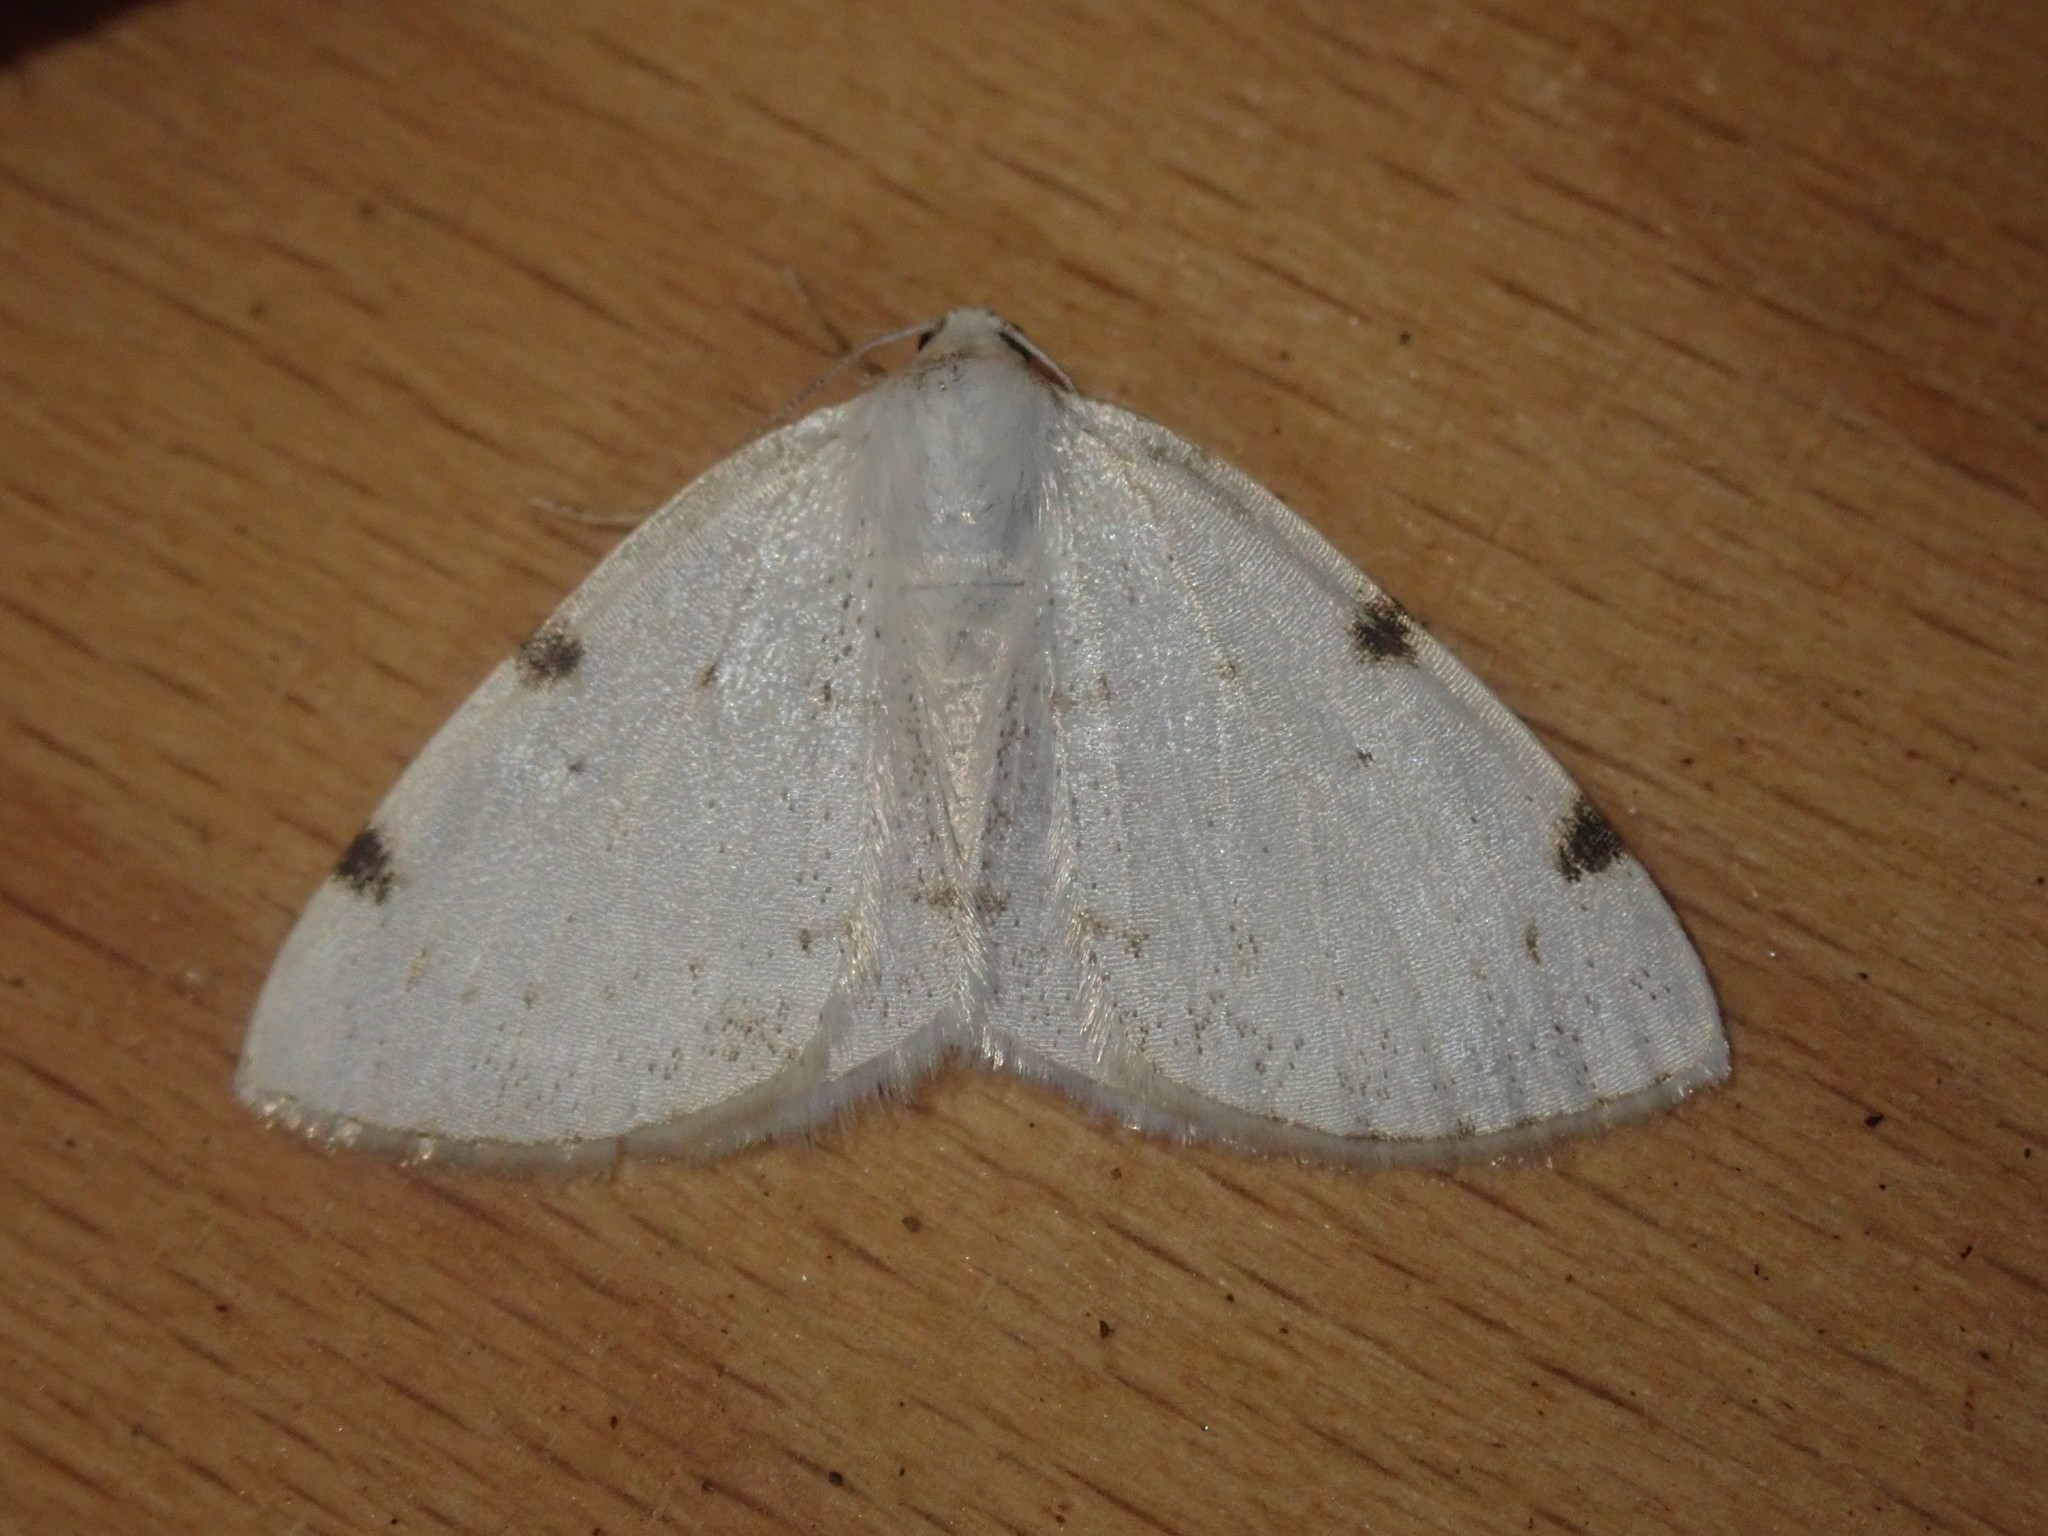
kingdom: Animalia
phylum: Arthropoda
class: Insecta
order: Lepidoptera
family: Geometridae
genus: Lomographa
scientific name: Lomographa bimaculata
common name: White-pinion spotted
